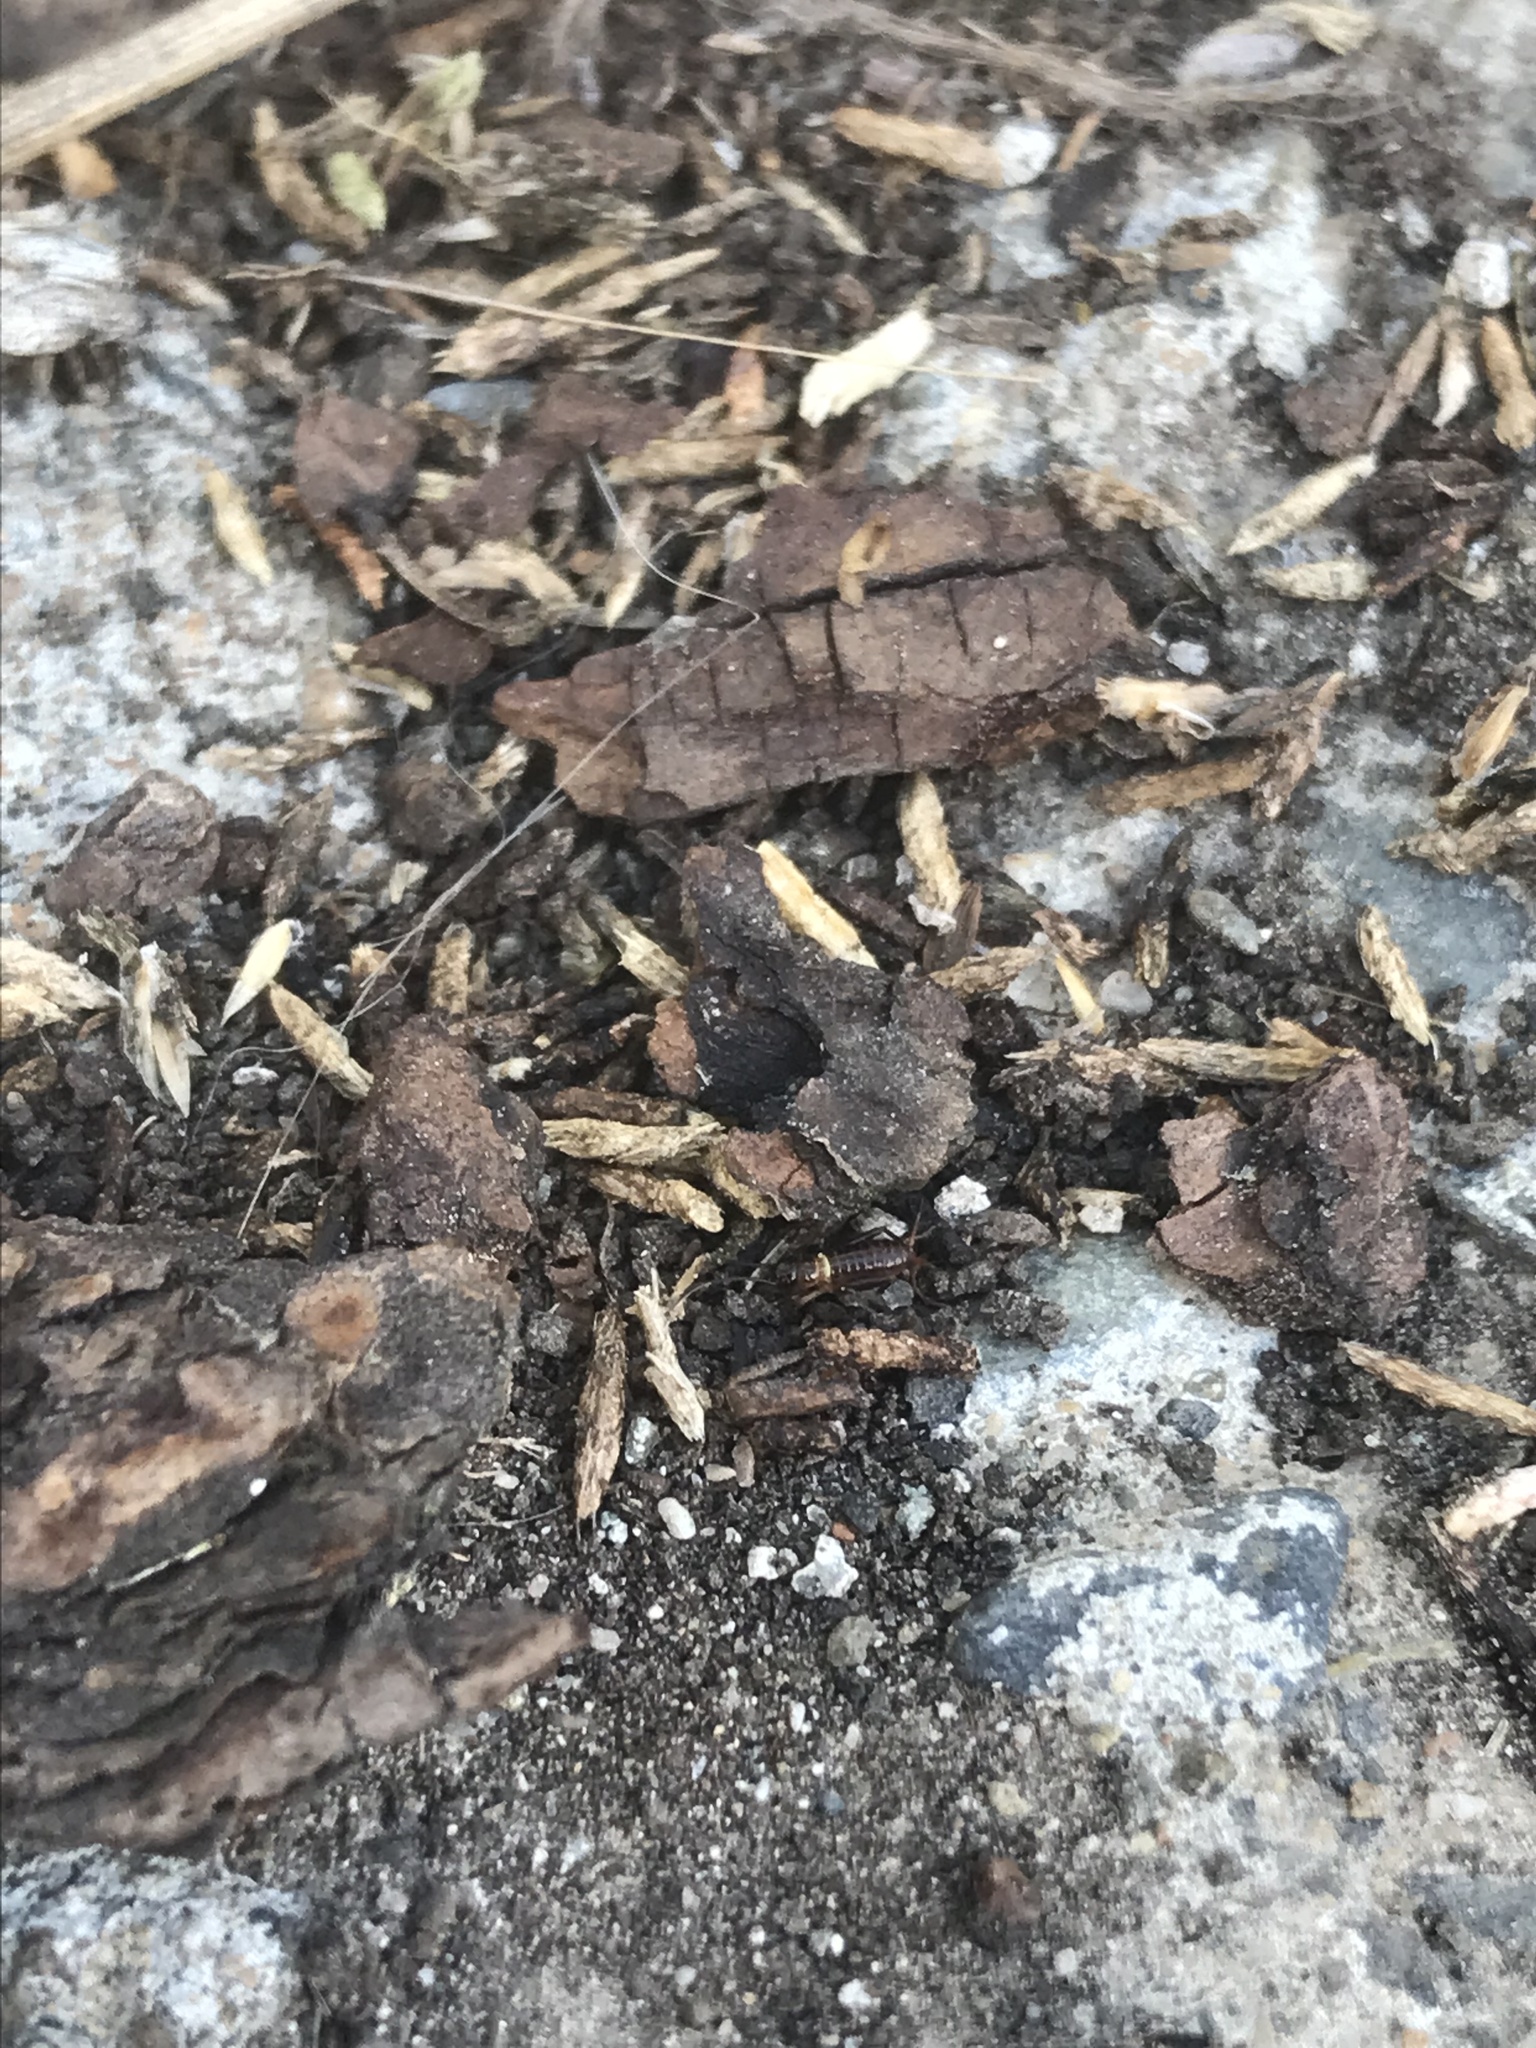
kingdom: Animalia
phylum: Arthropoda
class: Insecta
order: Orthoptera
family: Gryllidae
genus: Gryllus
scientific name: Gryllus veletis
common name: Spring field cricket
